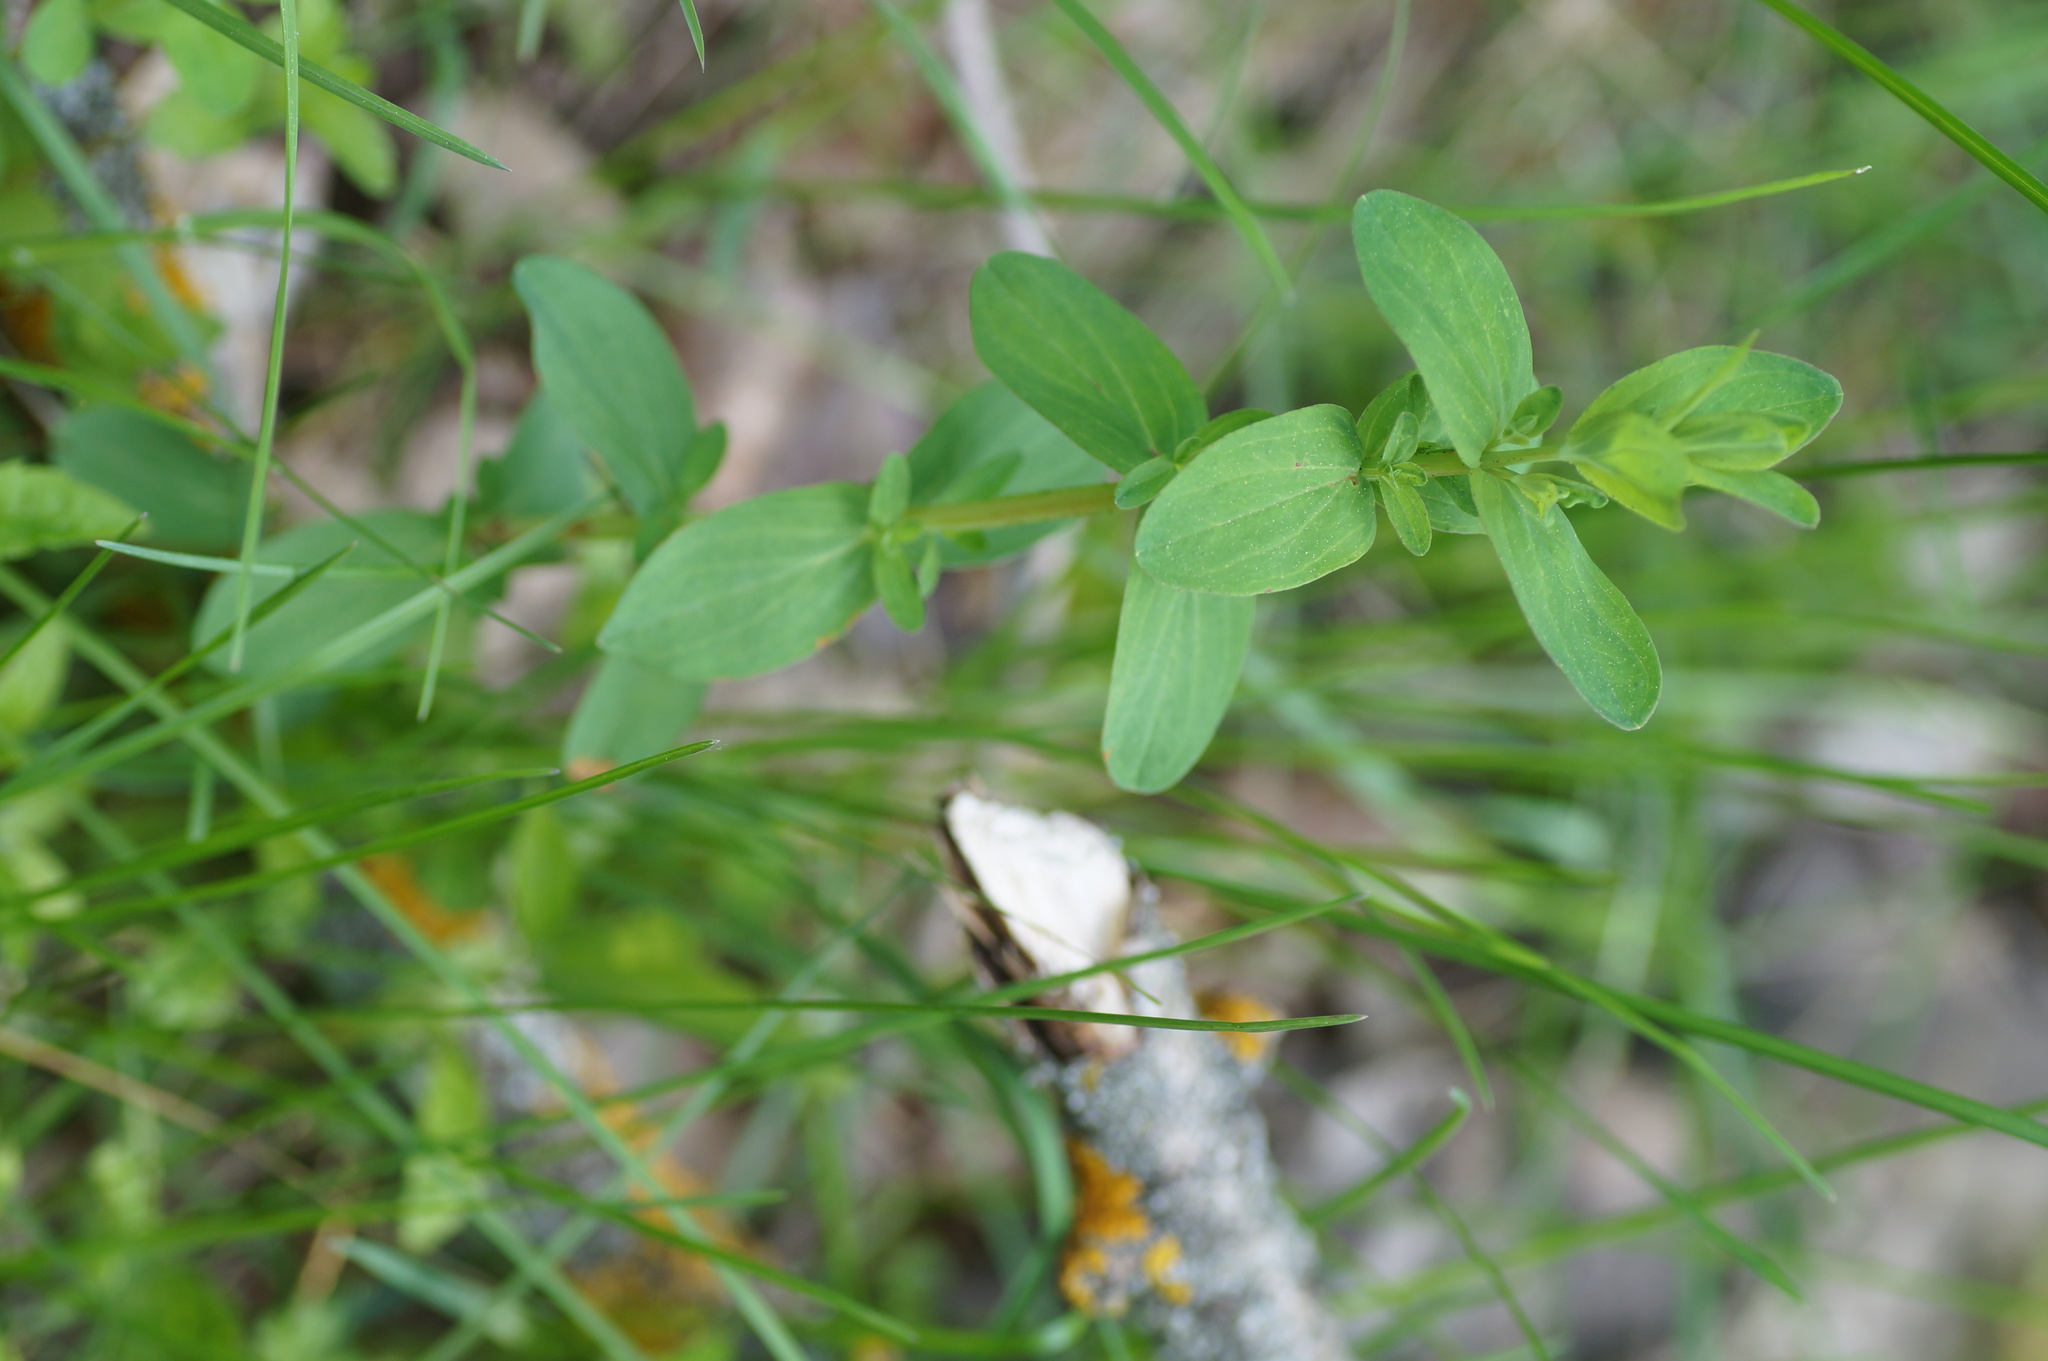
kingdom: Plantae
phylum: Tracheophyta
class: Magnoliopsida
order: Malpighiales
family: Hypericaceae
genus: Hypericum
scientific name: Hypericum perforatum
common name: Common st. johnswort
